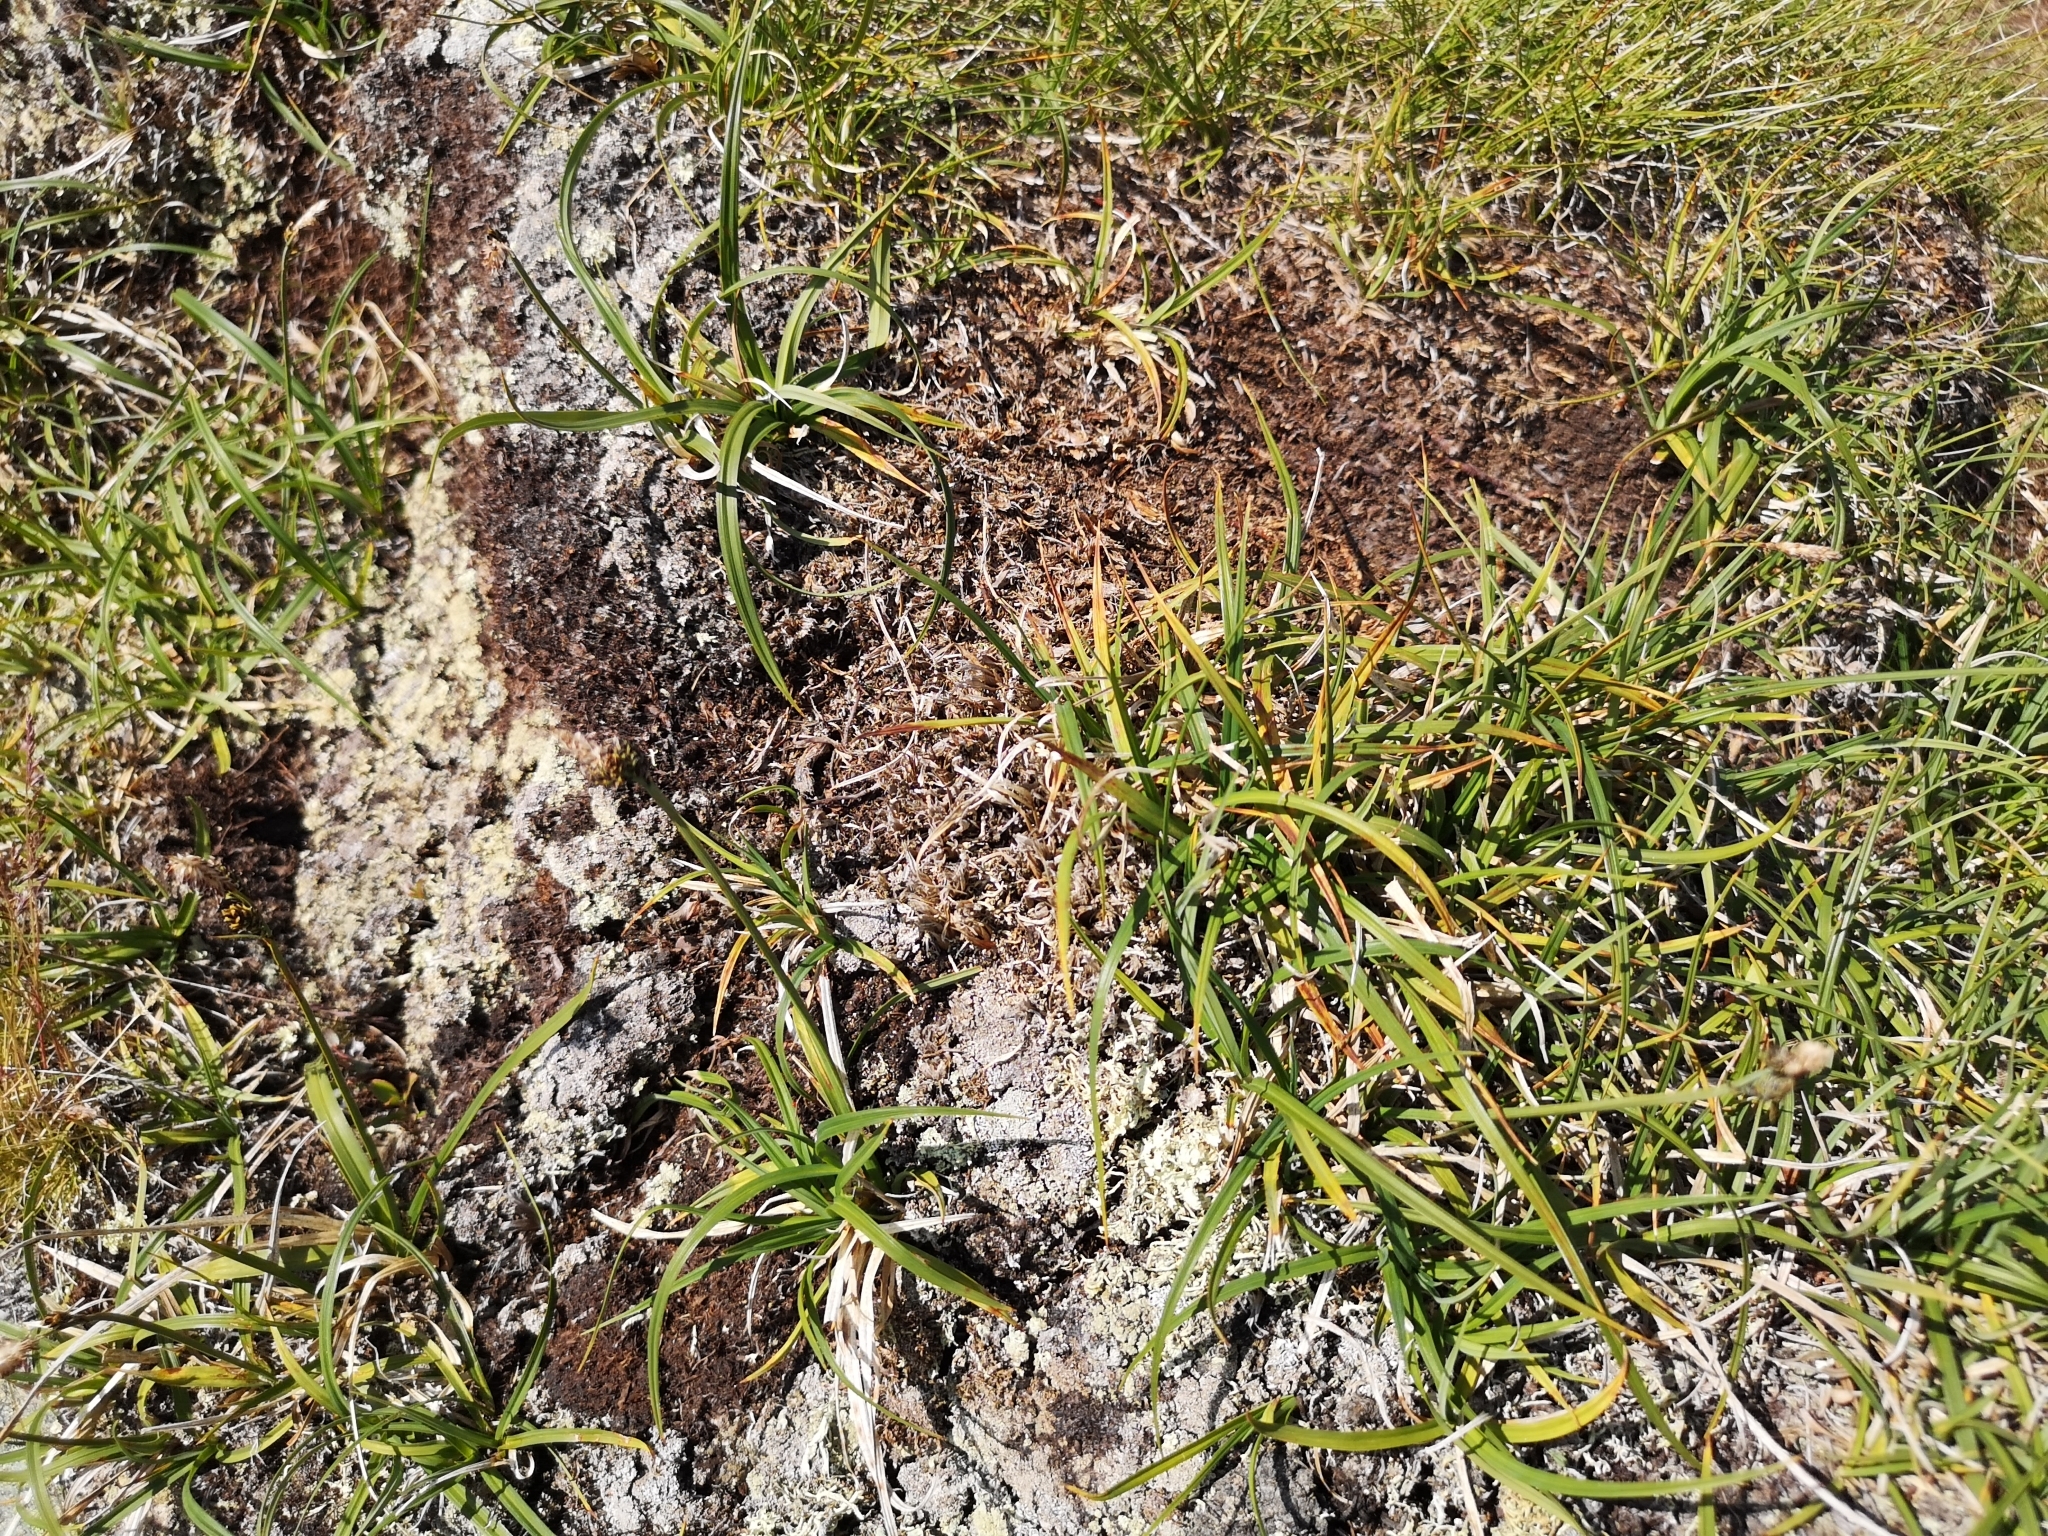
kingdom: Plantae
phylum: Tracheophyta
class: Liliopsida
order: Poales
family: Cyperaceae
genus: Carex
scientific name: Carex bigelowii
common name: Stiff sedge
